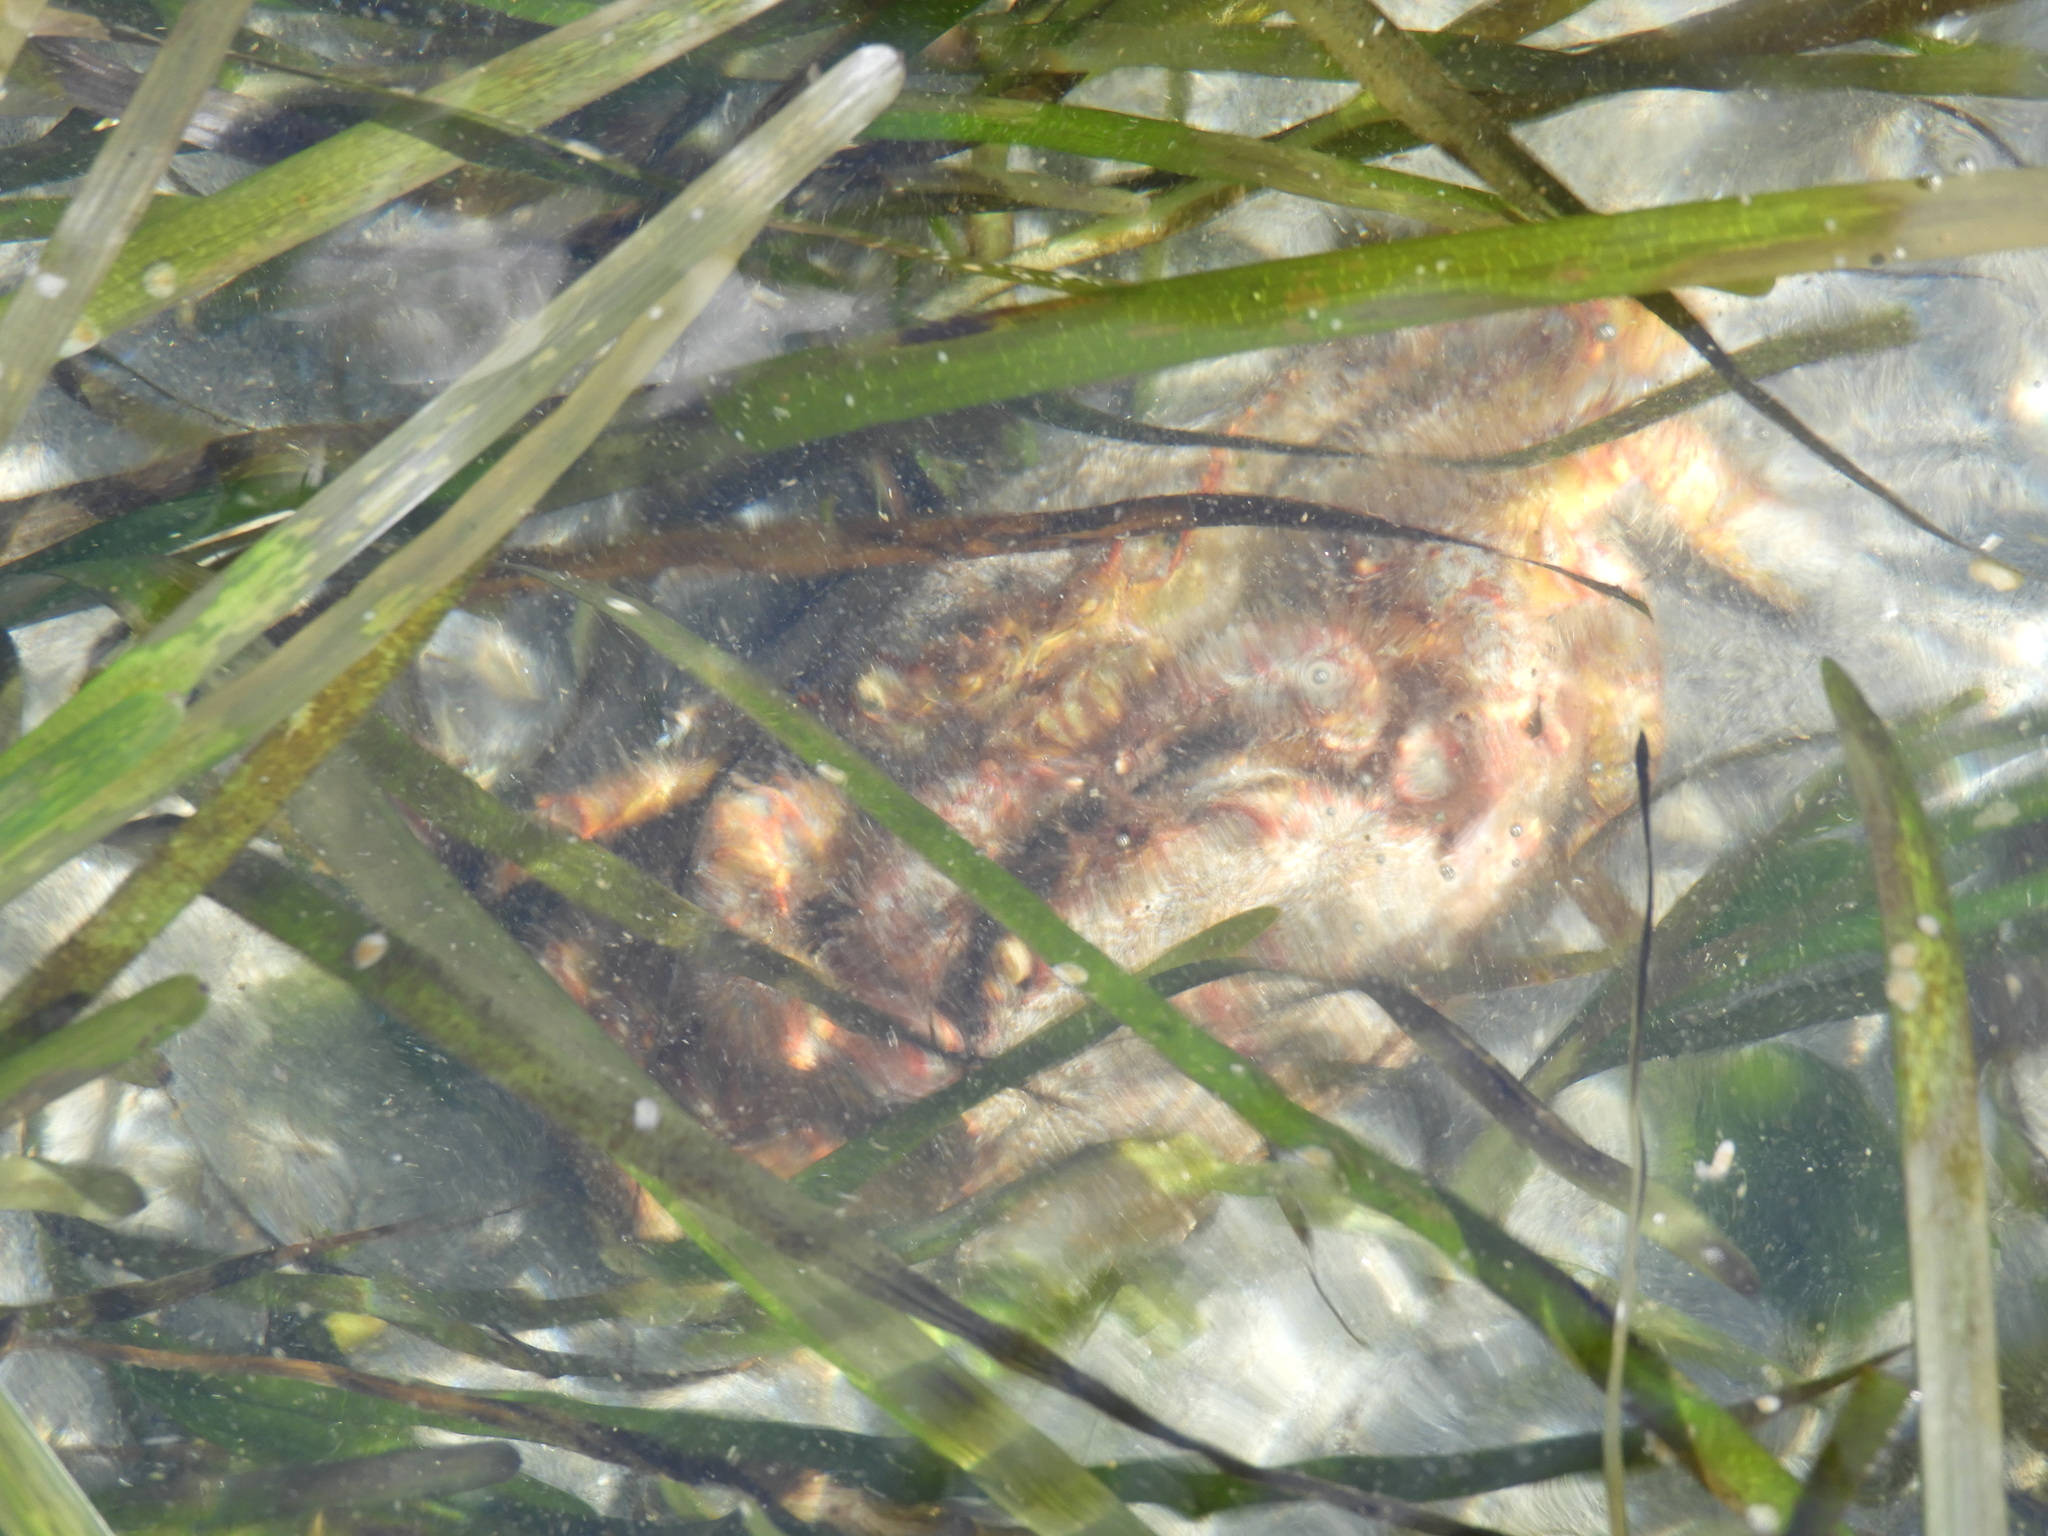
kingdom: Animalia
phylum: Arthropoda
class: Malacostraca
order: Decapoda
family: Cheiragonidae
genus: Telmessus
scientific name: Telmessus cheiragonus
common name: Helmet crab
